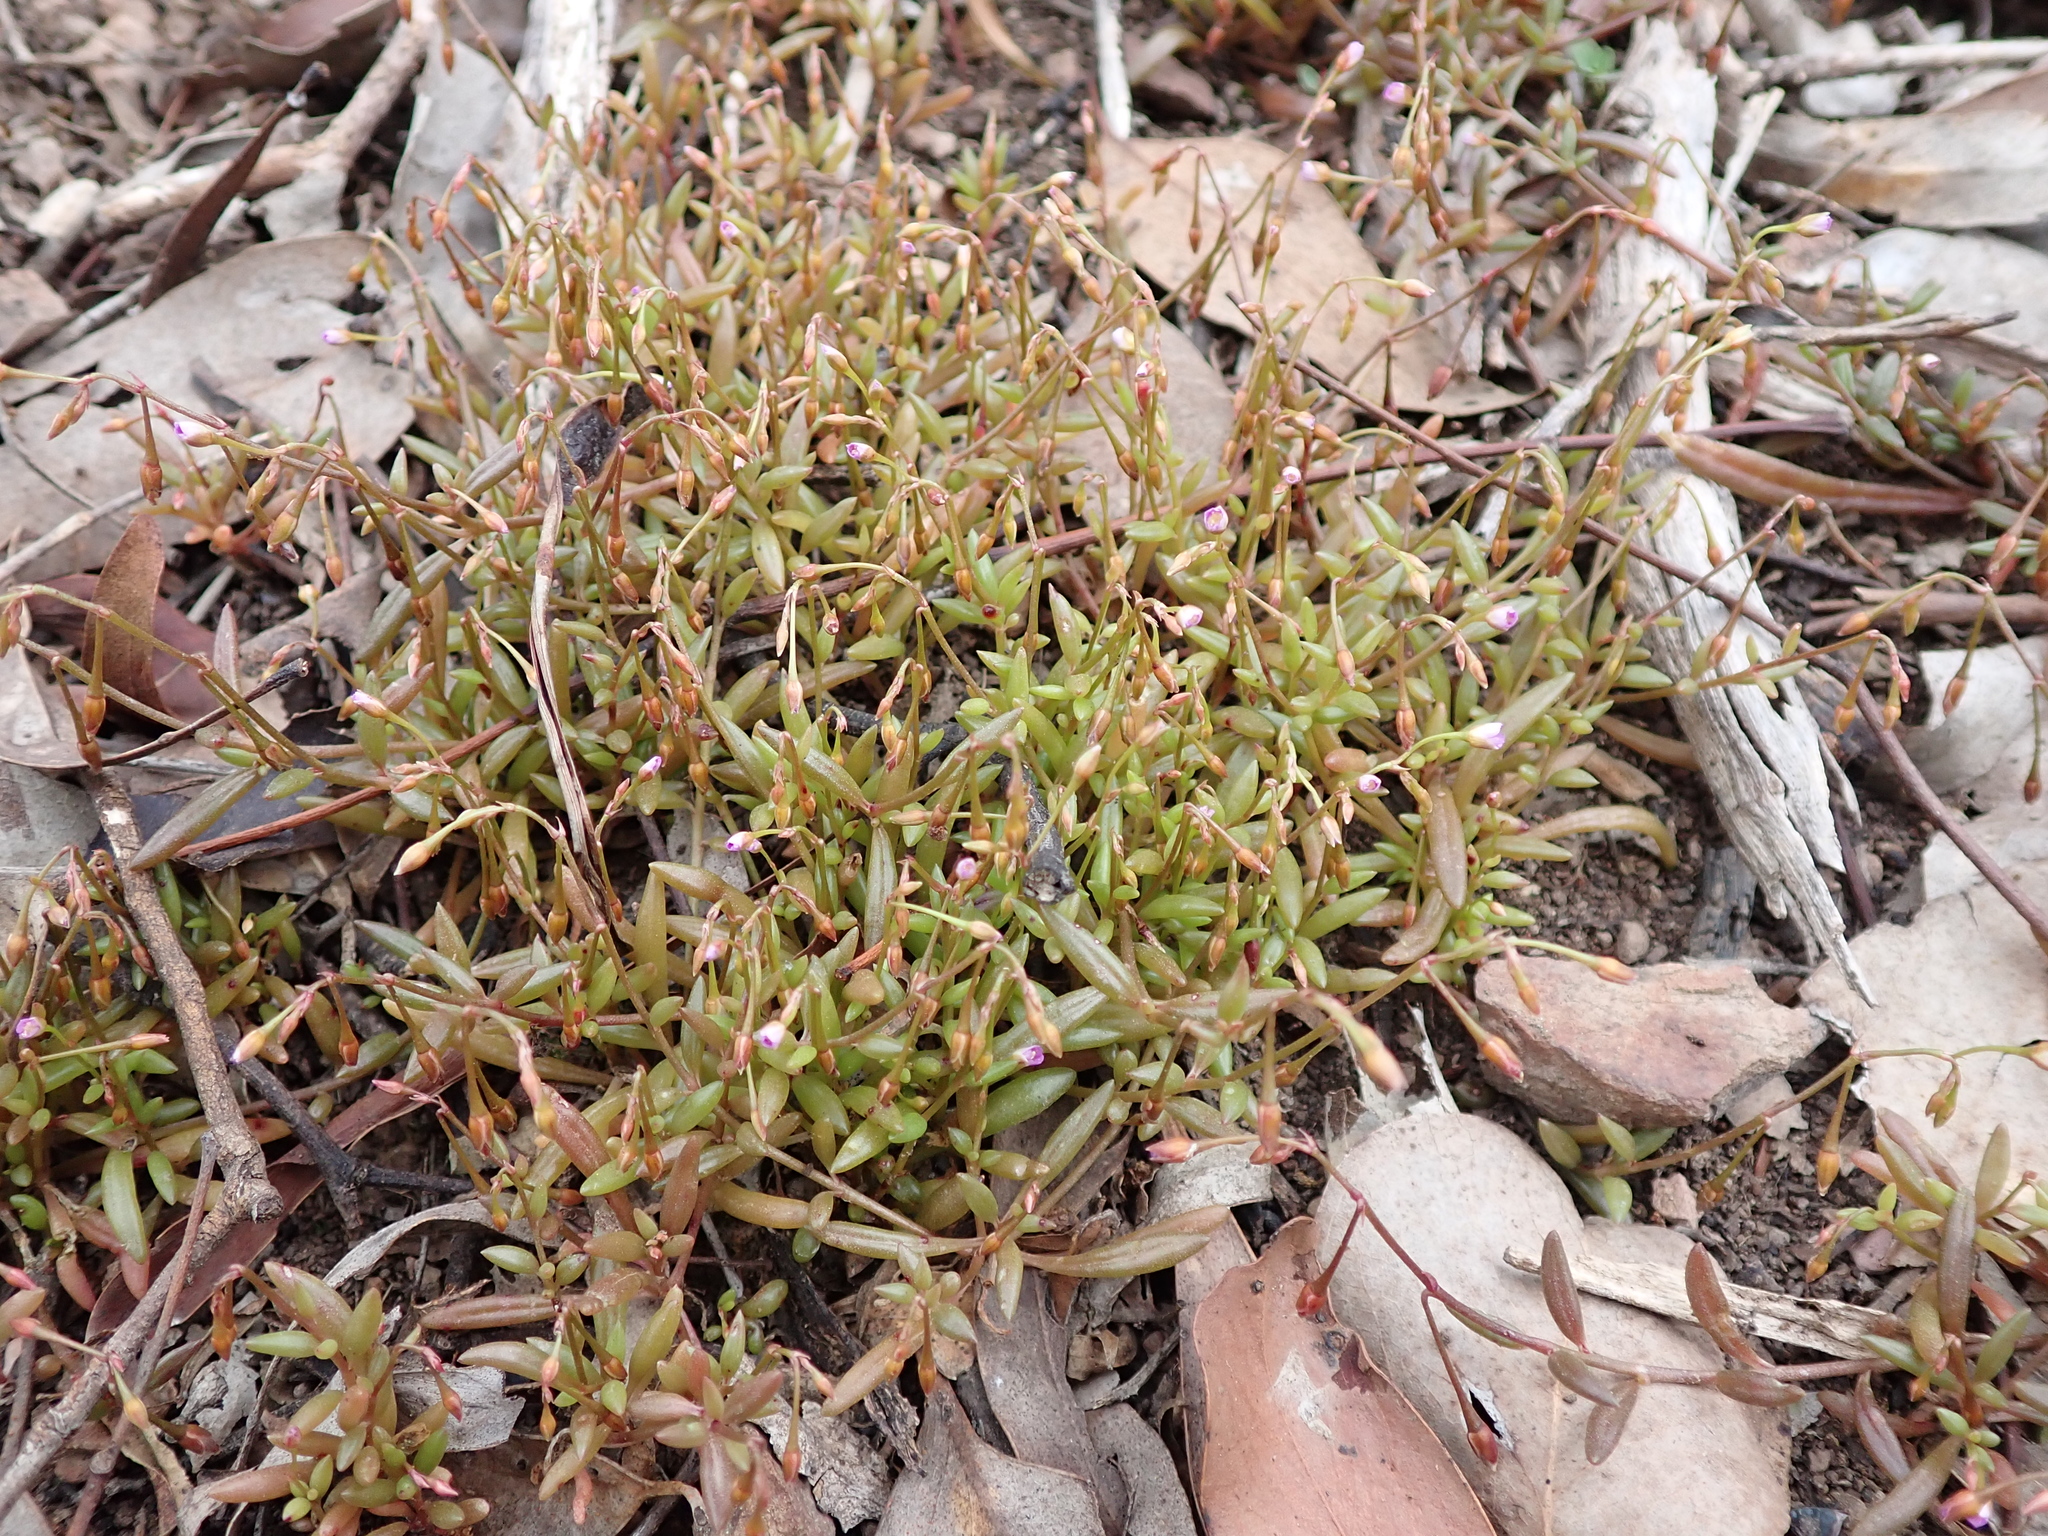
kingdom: Plantae
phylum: Tracheophyta
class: Magnoliopsida
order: Caryophyllales
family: Montiaceae
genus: Rumicastrum
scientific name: Rumicastrum calyptratum
